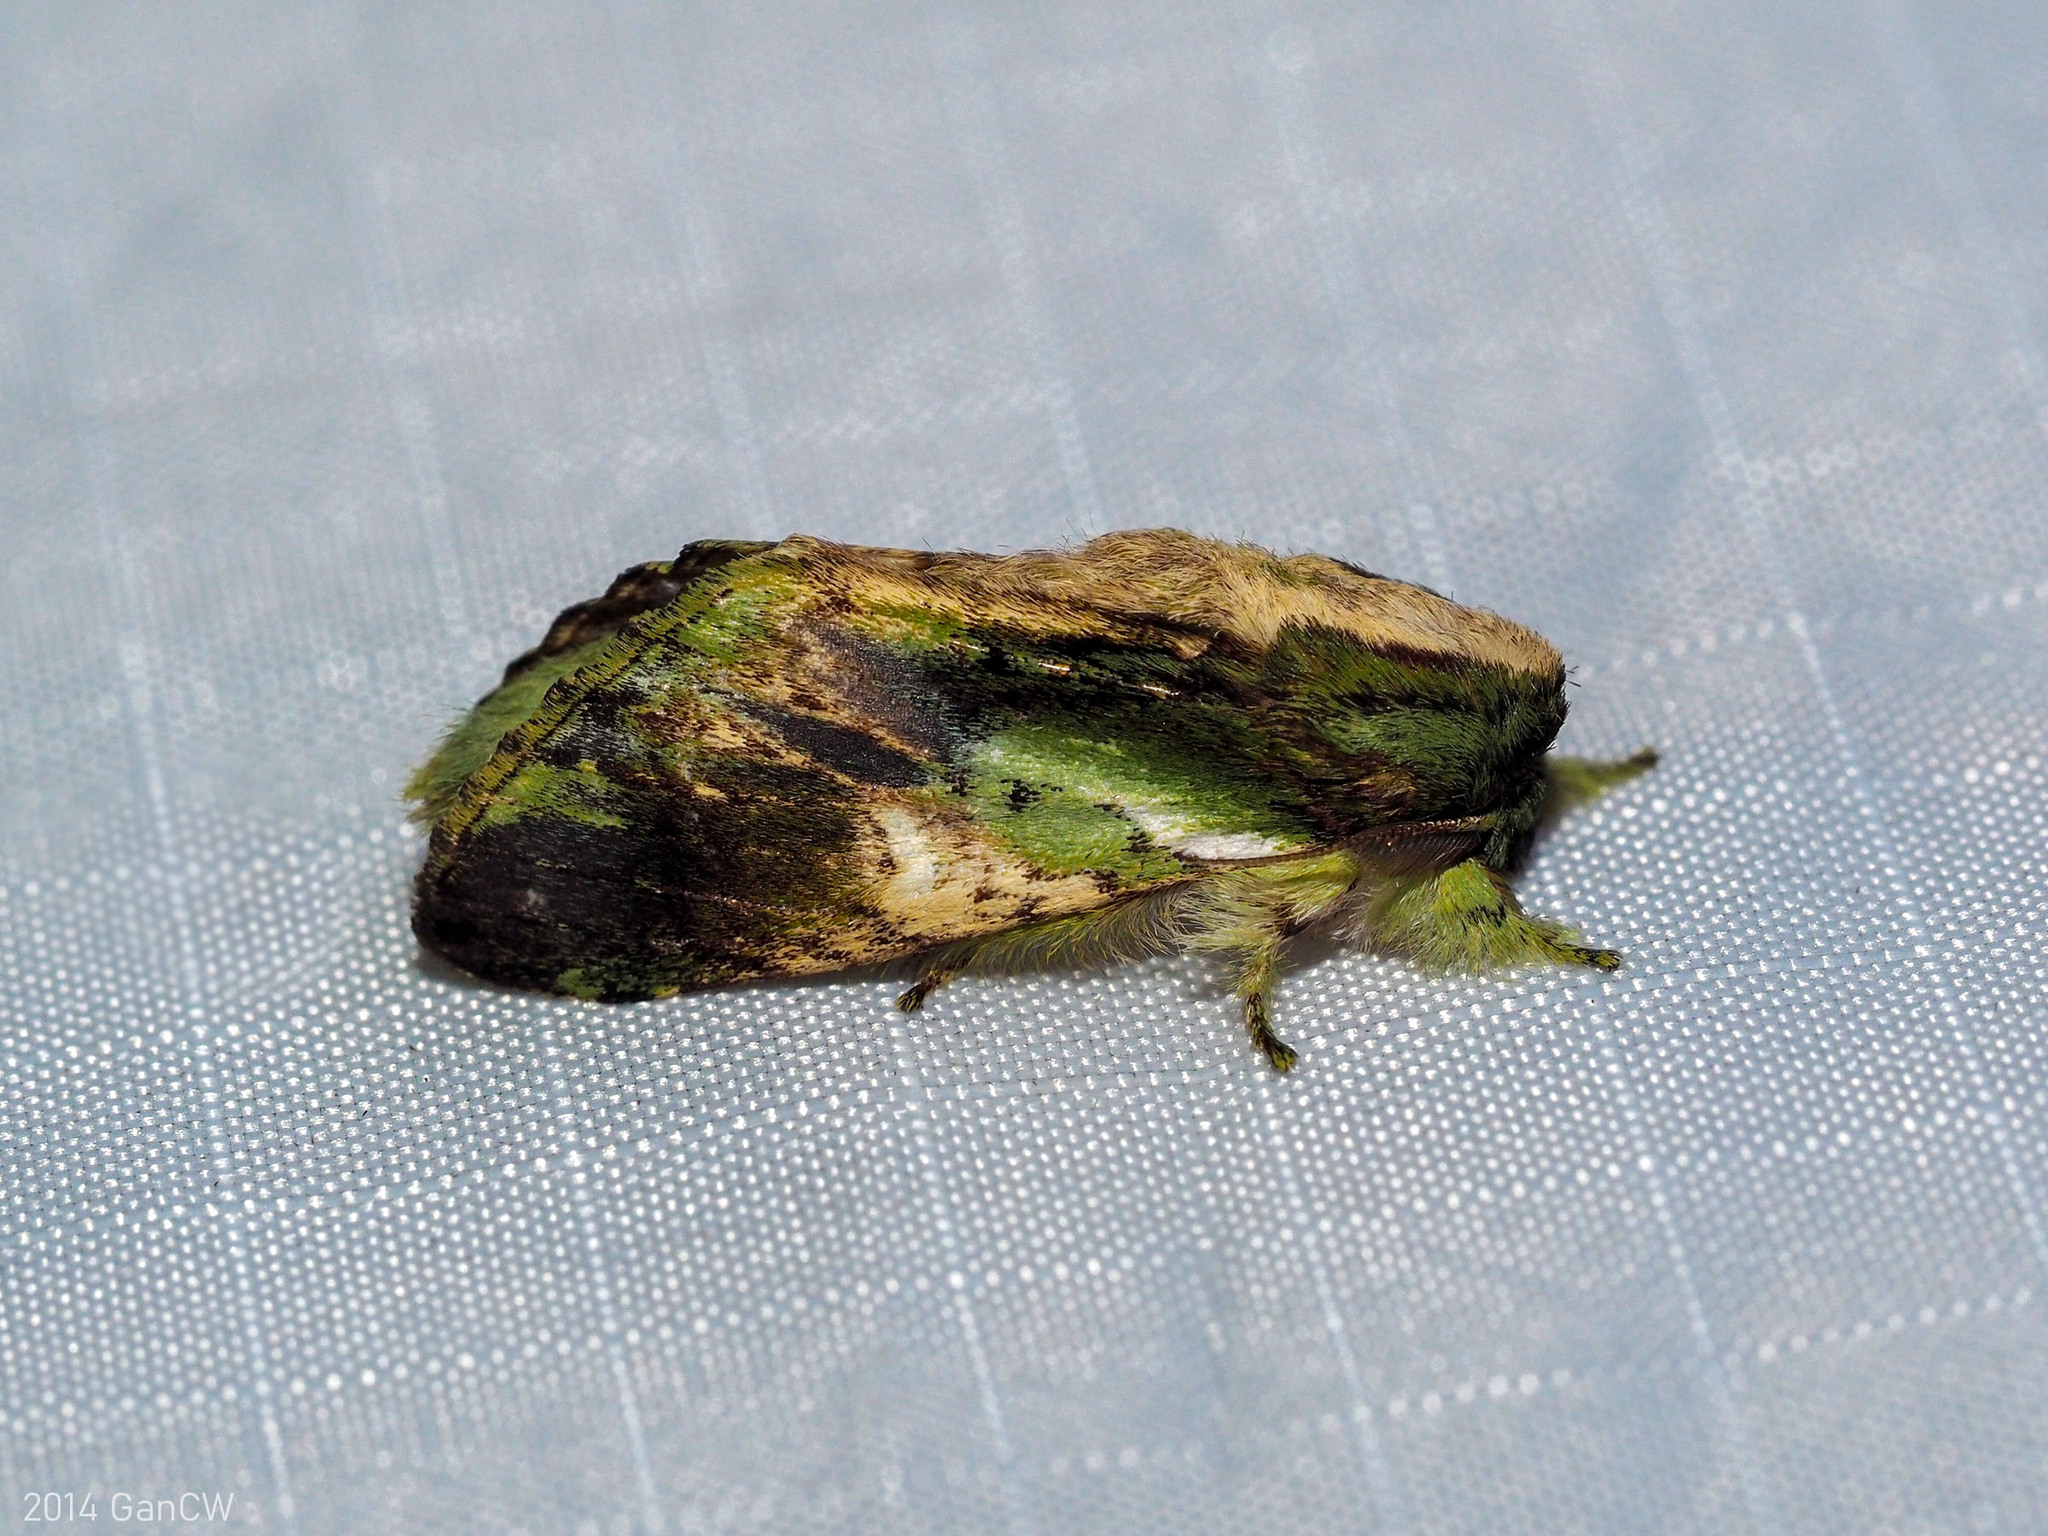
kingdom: Animalia
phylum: Arthropoda
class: Insecta
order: Lepidoptera
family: Notodontidae
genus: Shachia
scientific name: Shachia vernalis
